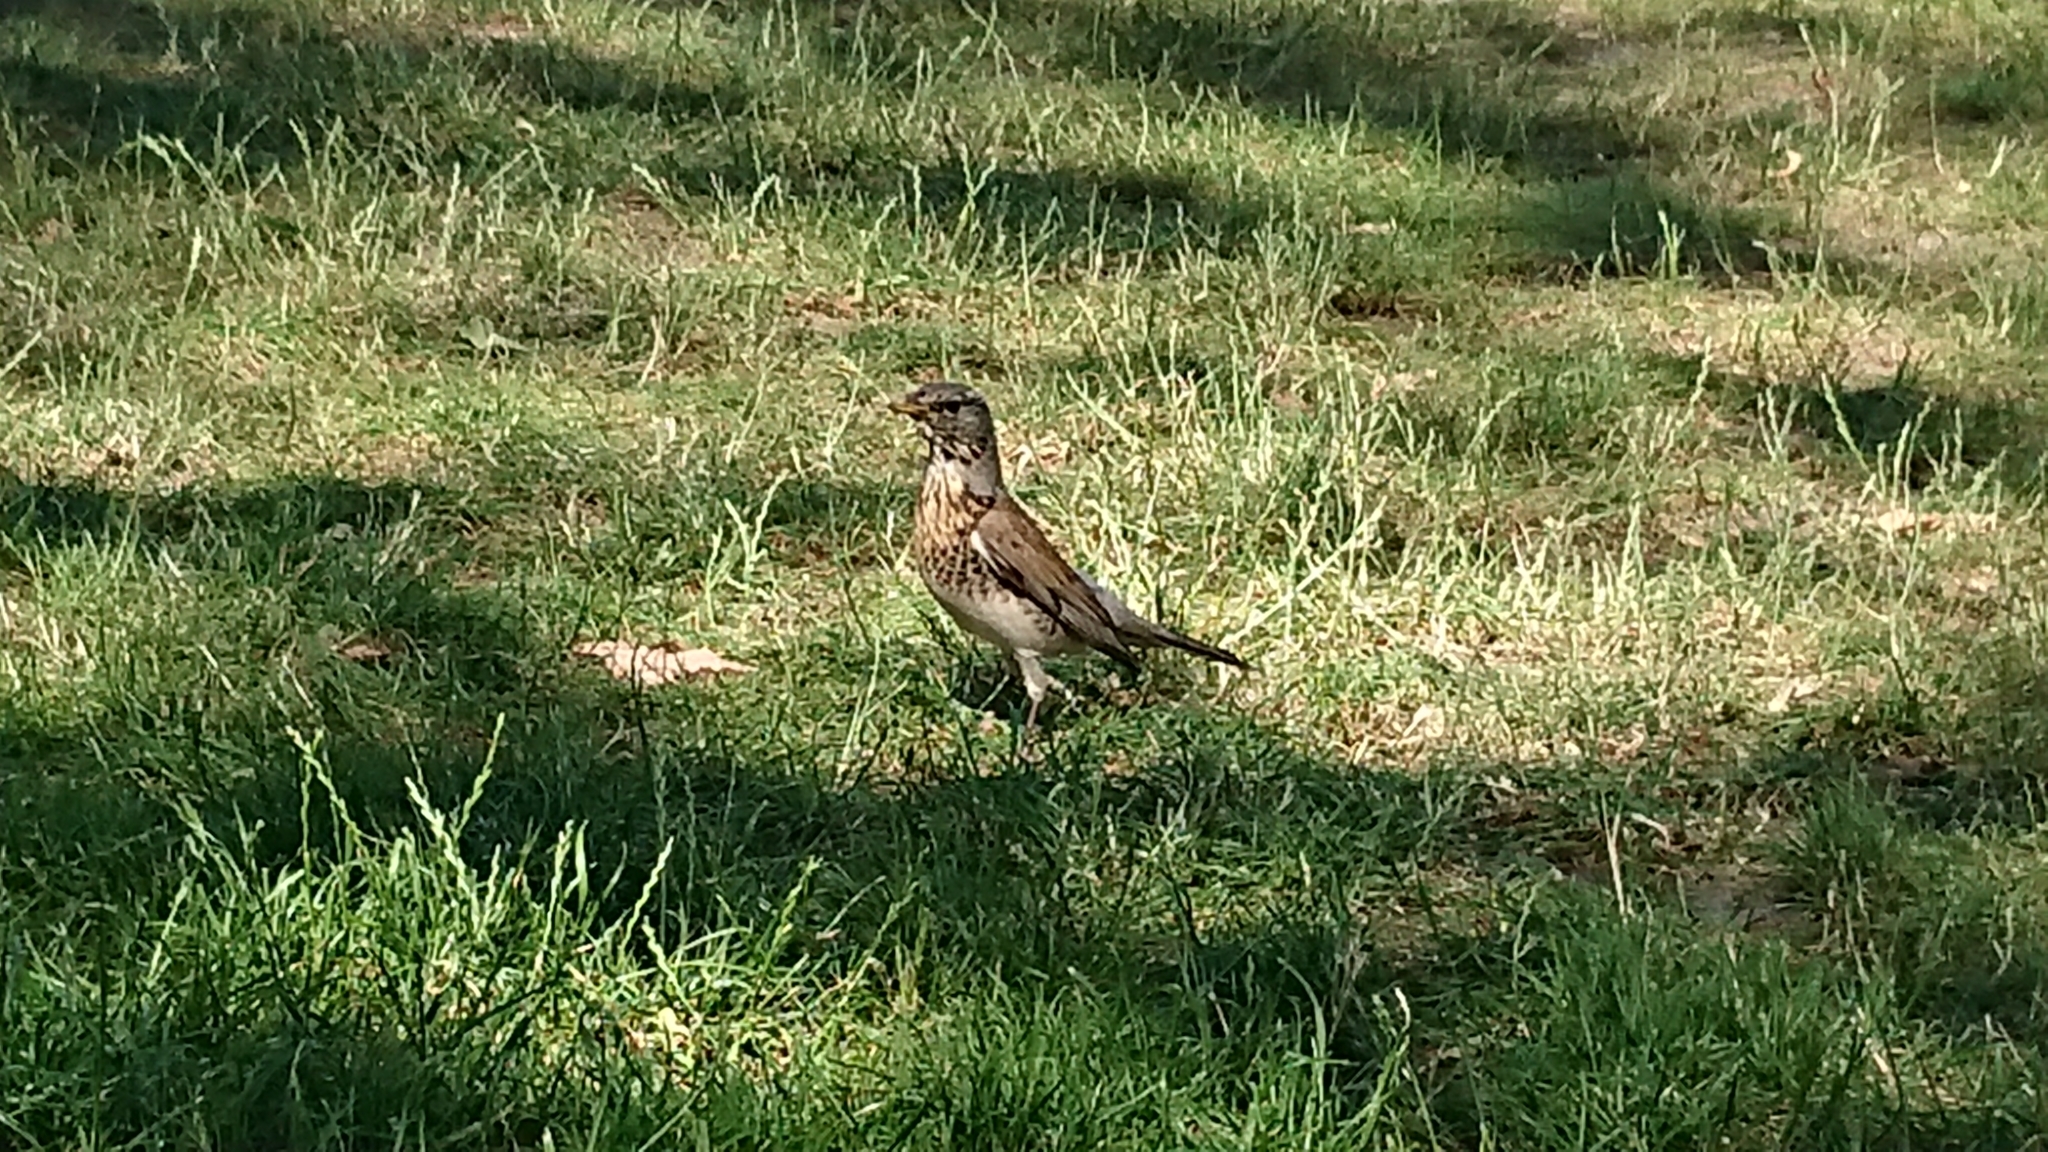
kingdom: Animalia
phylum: Chordata
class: Aves
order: Passeriformes
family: Turdidae
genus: Turdus
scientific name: Turdus pilaris
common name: Fieldfare
